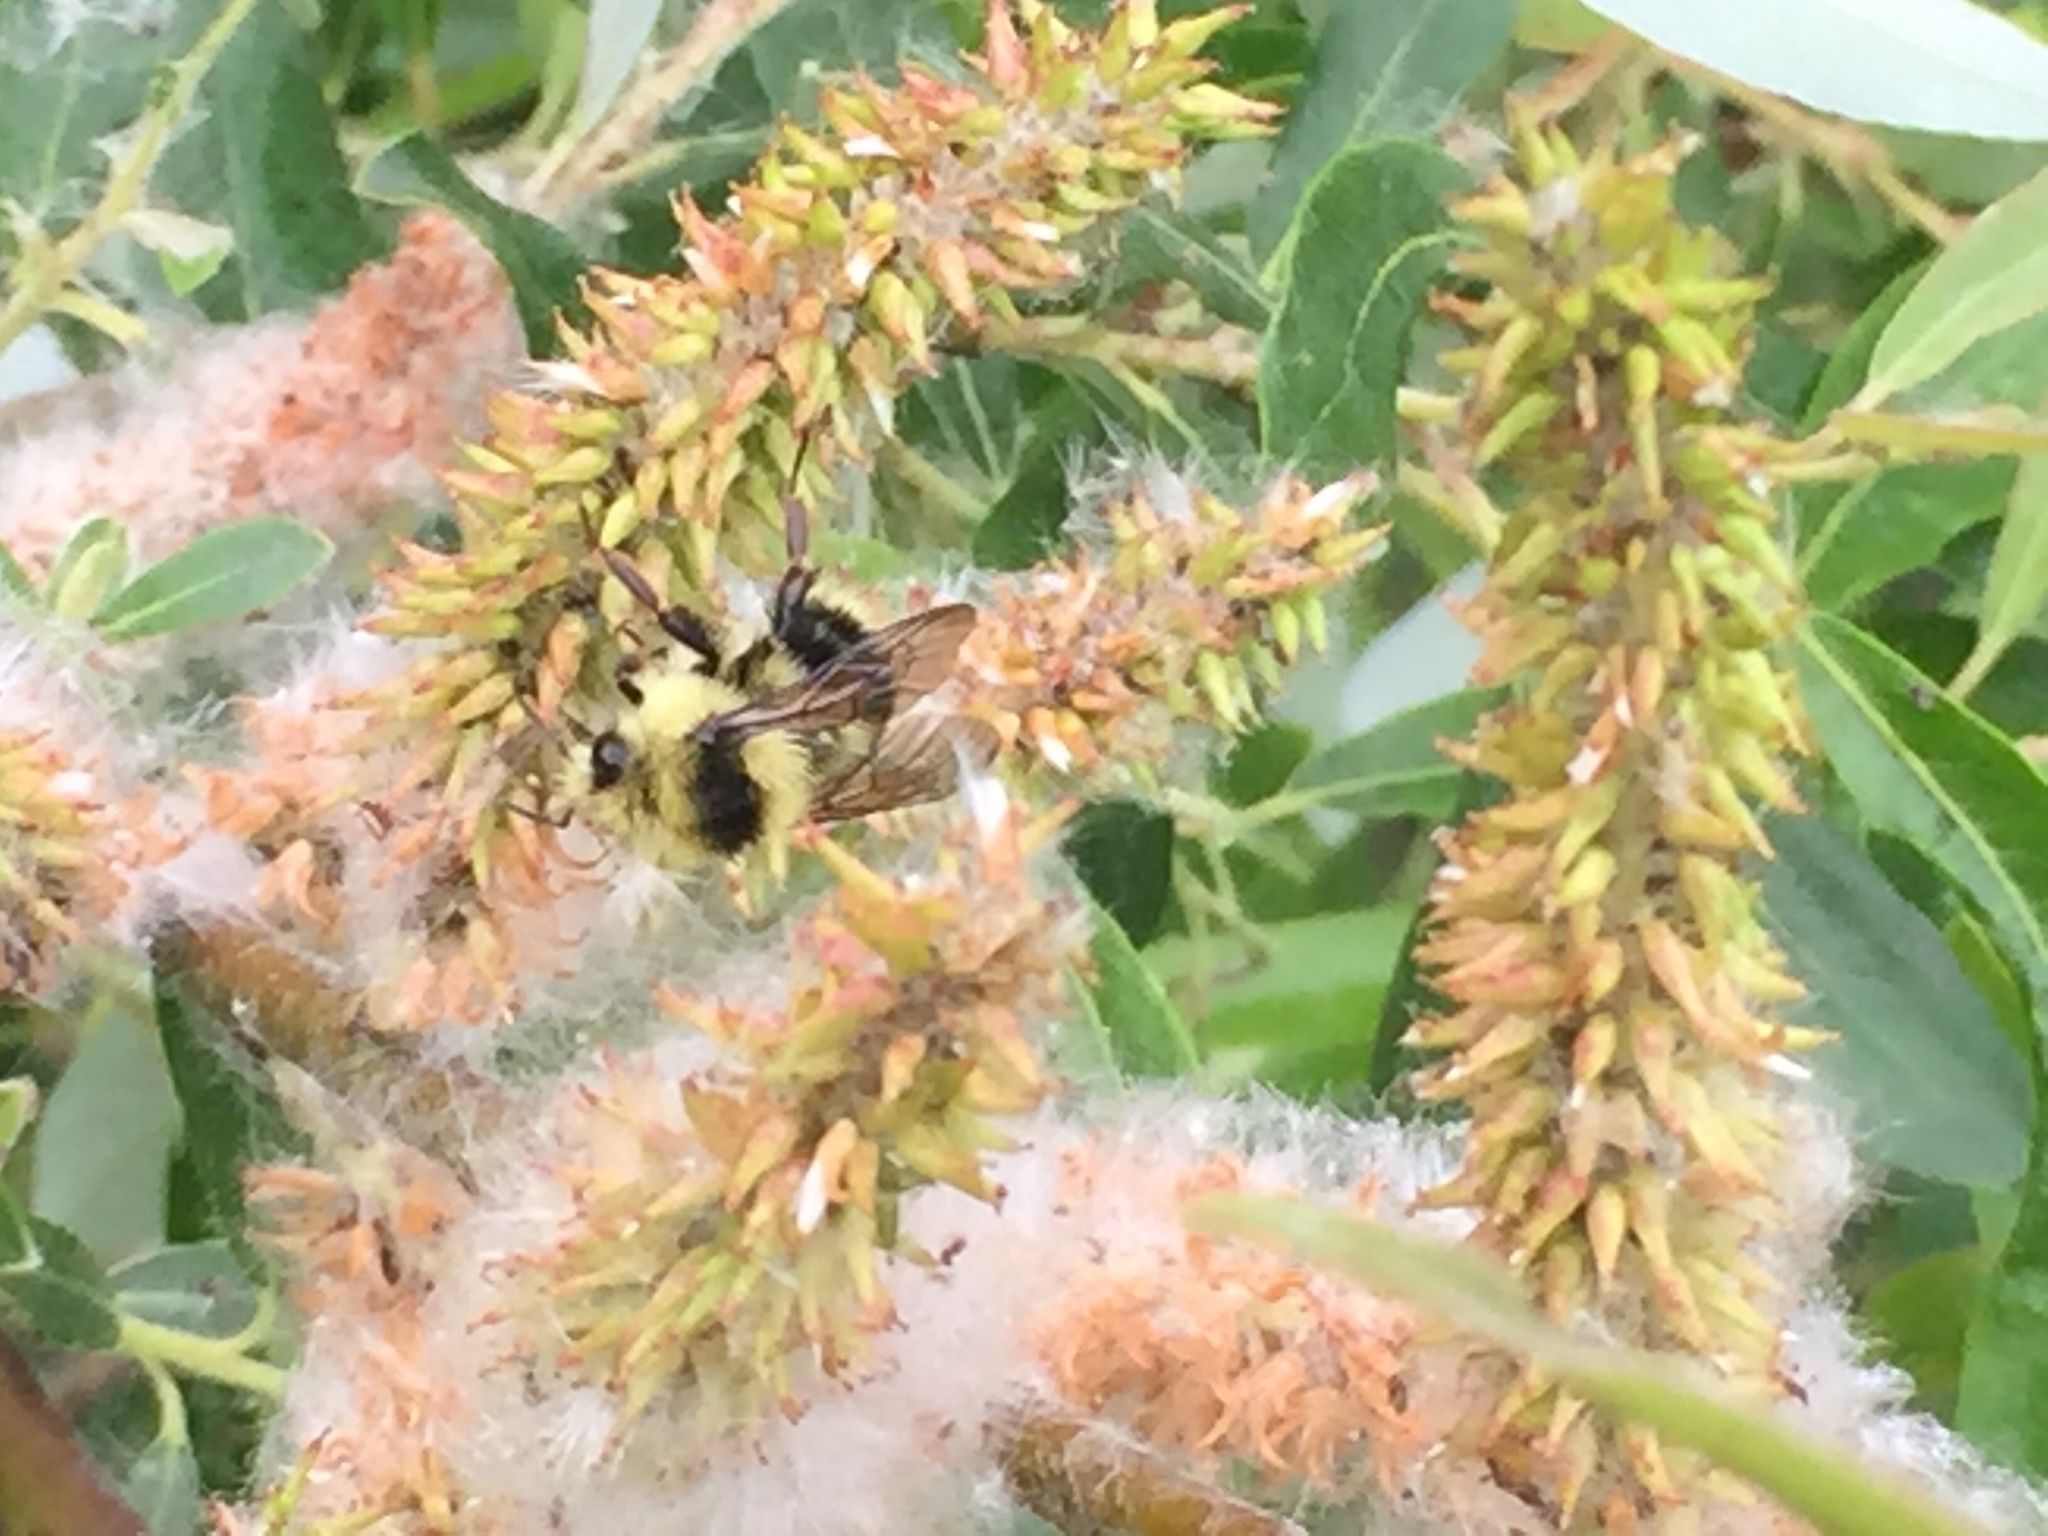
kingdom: Animalia
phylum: Arthropoda
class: Insecta
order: Hymenoptera
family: Apidae
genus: Bombus
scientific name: Bombus melanopygus
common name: Black tail bumble bee
